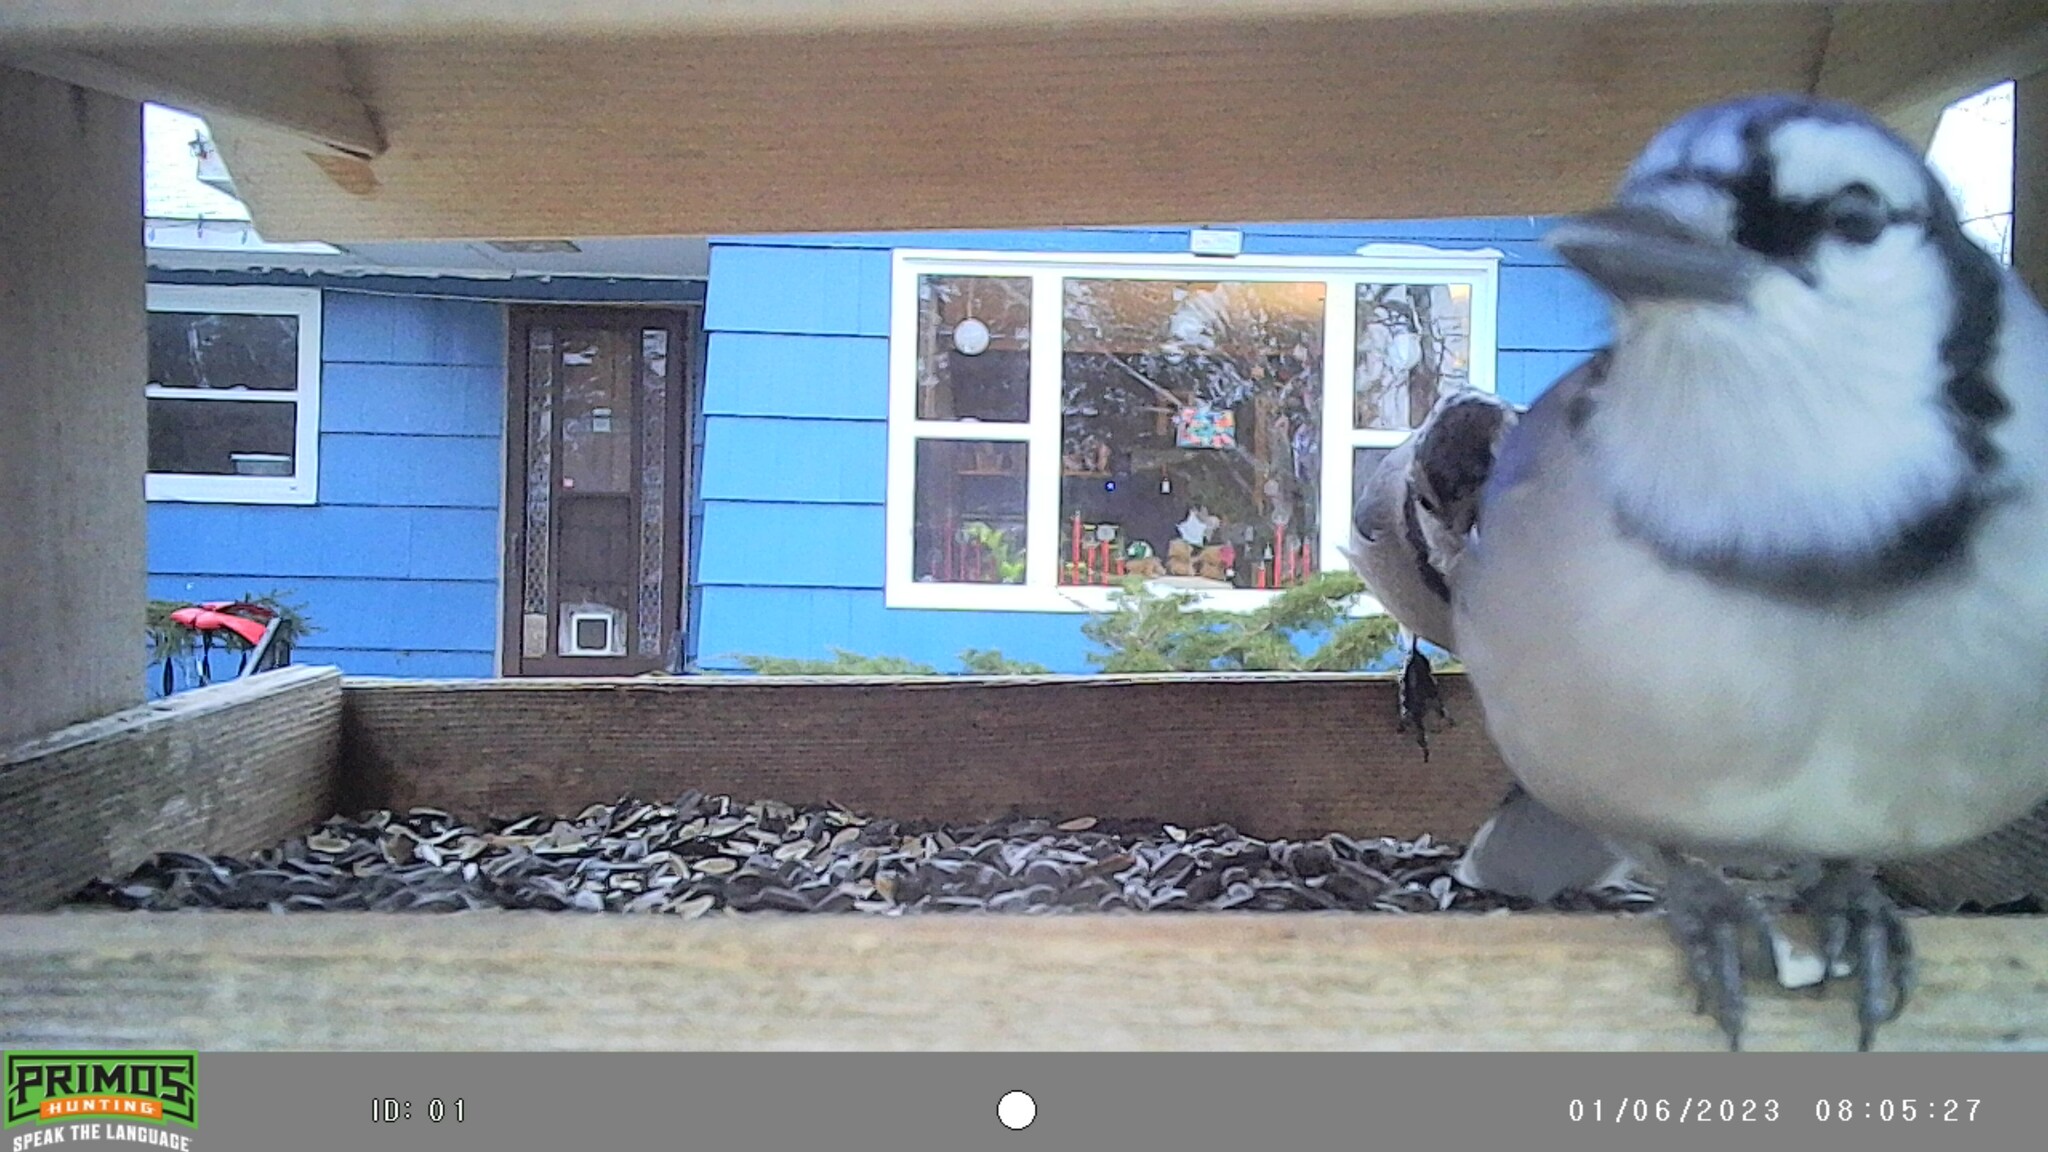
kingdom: Animalia
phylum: Chordata
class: Aves
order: Passeriformes
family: Corvidae
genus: Cyanocitta
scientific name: Cyanocitta cristata
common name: Blue jay
